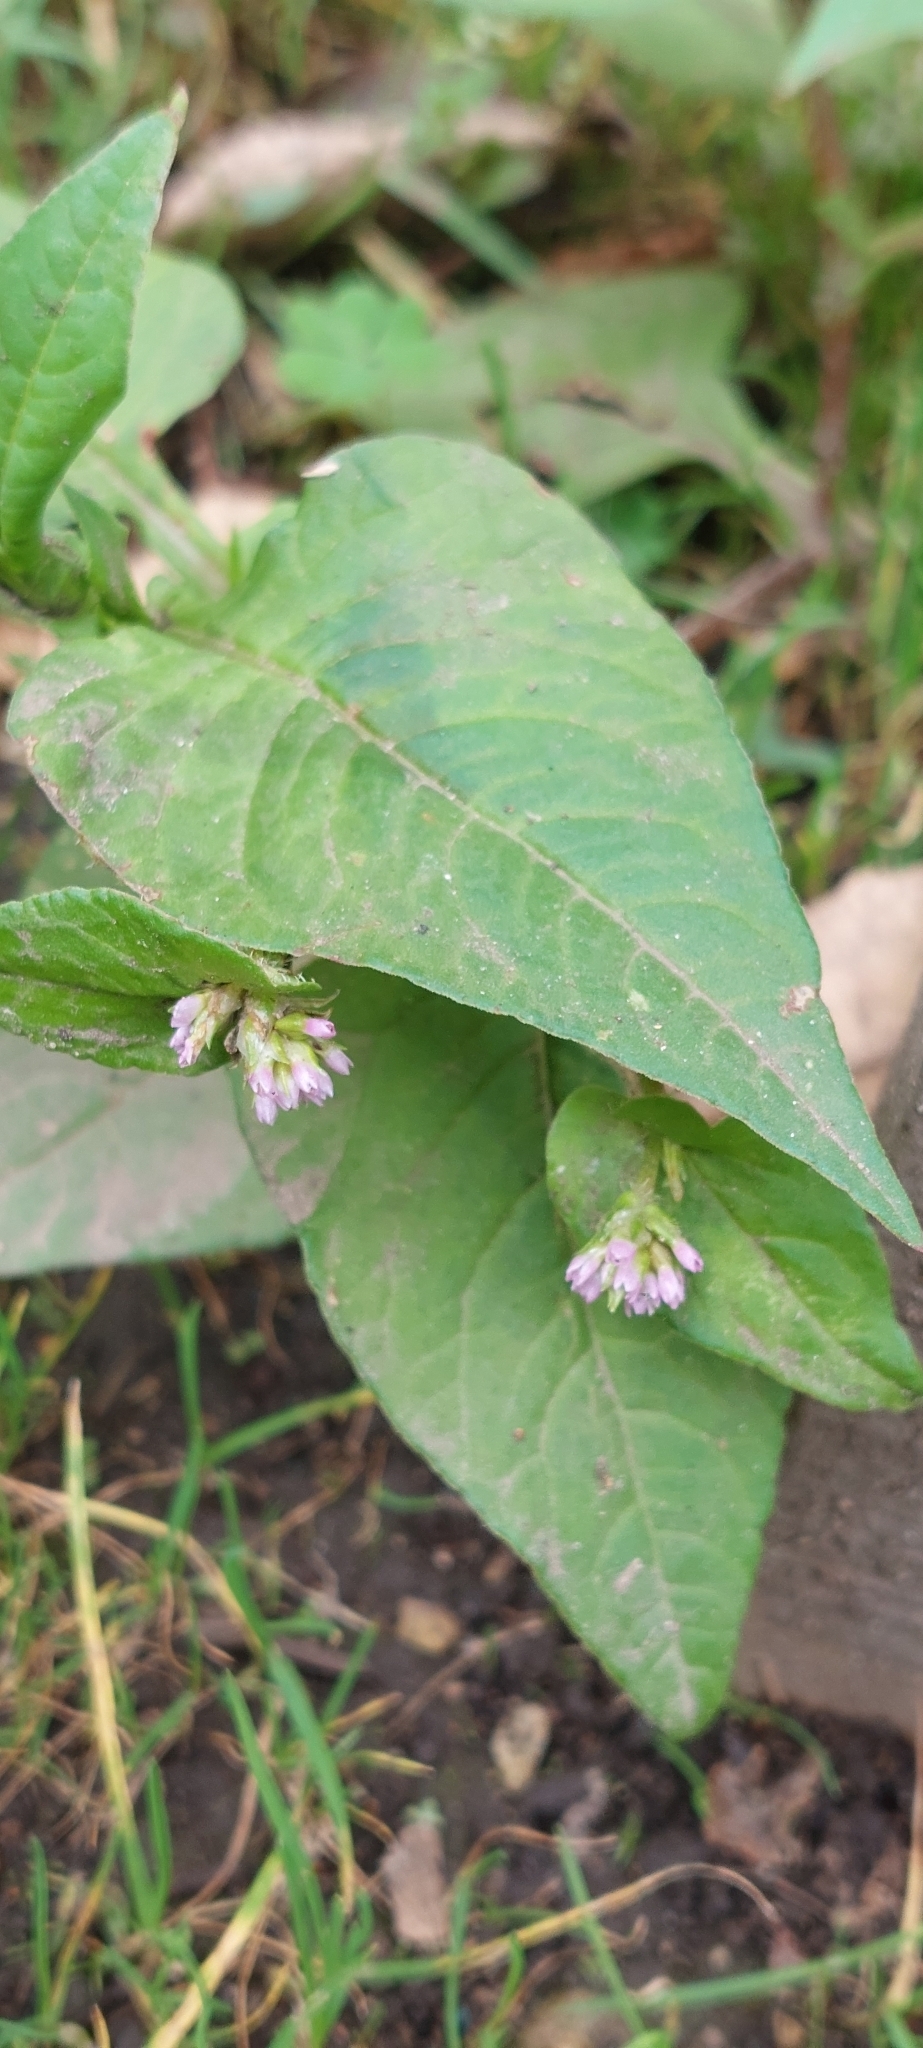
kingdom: Plantae
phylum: Tracheophyta
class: Magnoliopsida
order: Caryophyllales
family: Polygonaceae
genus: Persicaria
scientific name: Persicaria nepalensis
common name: Nepal persicaria
